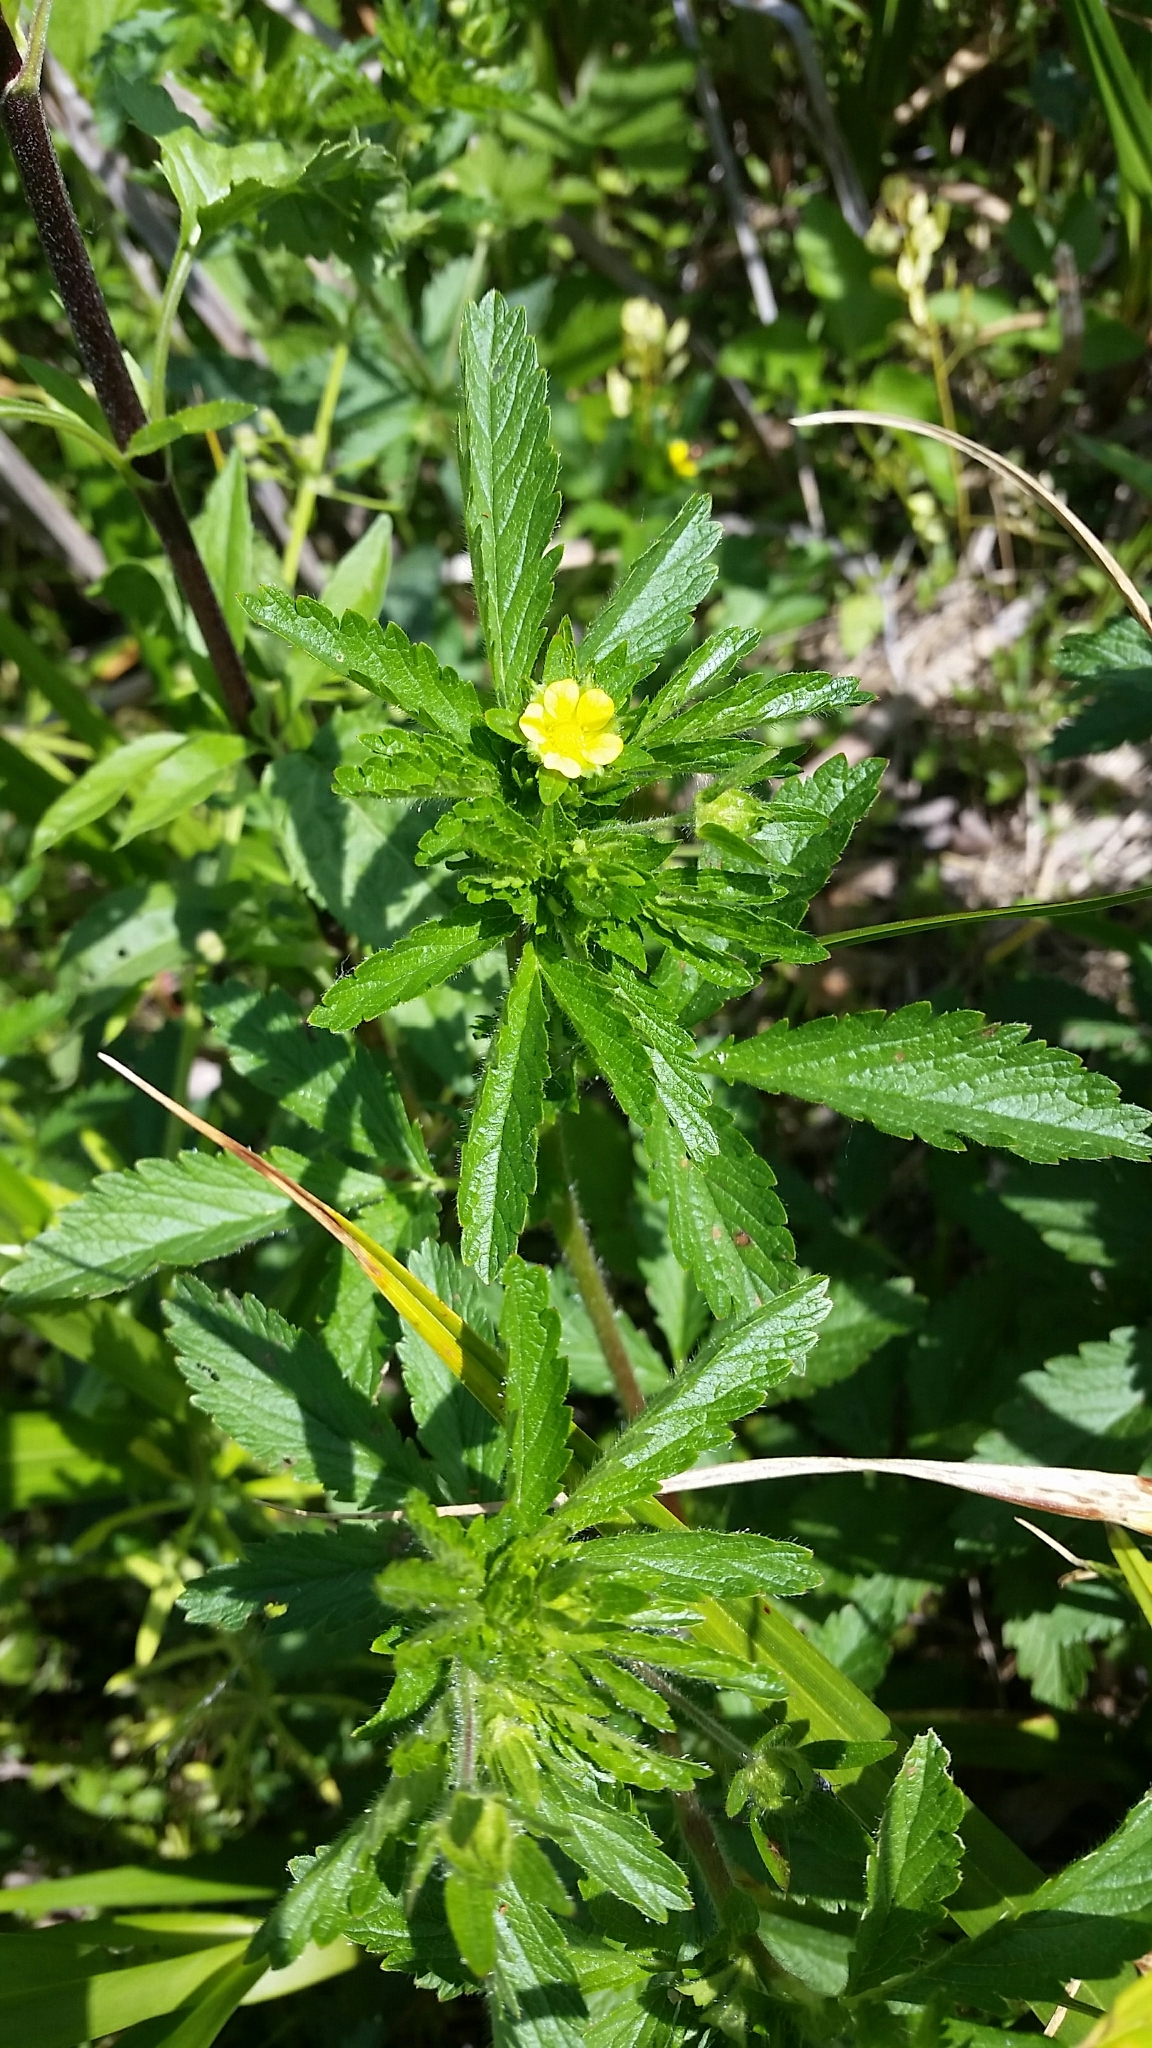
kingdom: Plantae
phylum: Tracheophyta
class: Magnoliopsida
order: Rosales
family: Rosaceae
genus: Potentilla
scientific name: Potentilla norvegica
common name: Ternate-leaved cinquefoil
